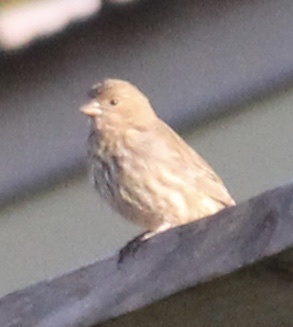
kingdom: Animalia
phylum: Chordata
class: Aves
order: Passeriformes
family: Fringillidae
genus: Haemorhous
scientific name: Haemorhous mexicanus
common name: House finch
